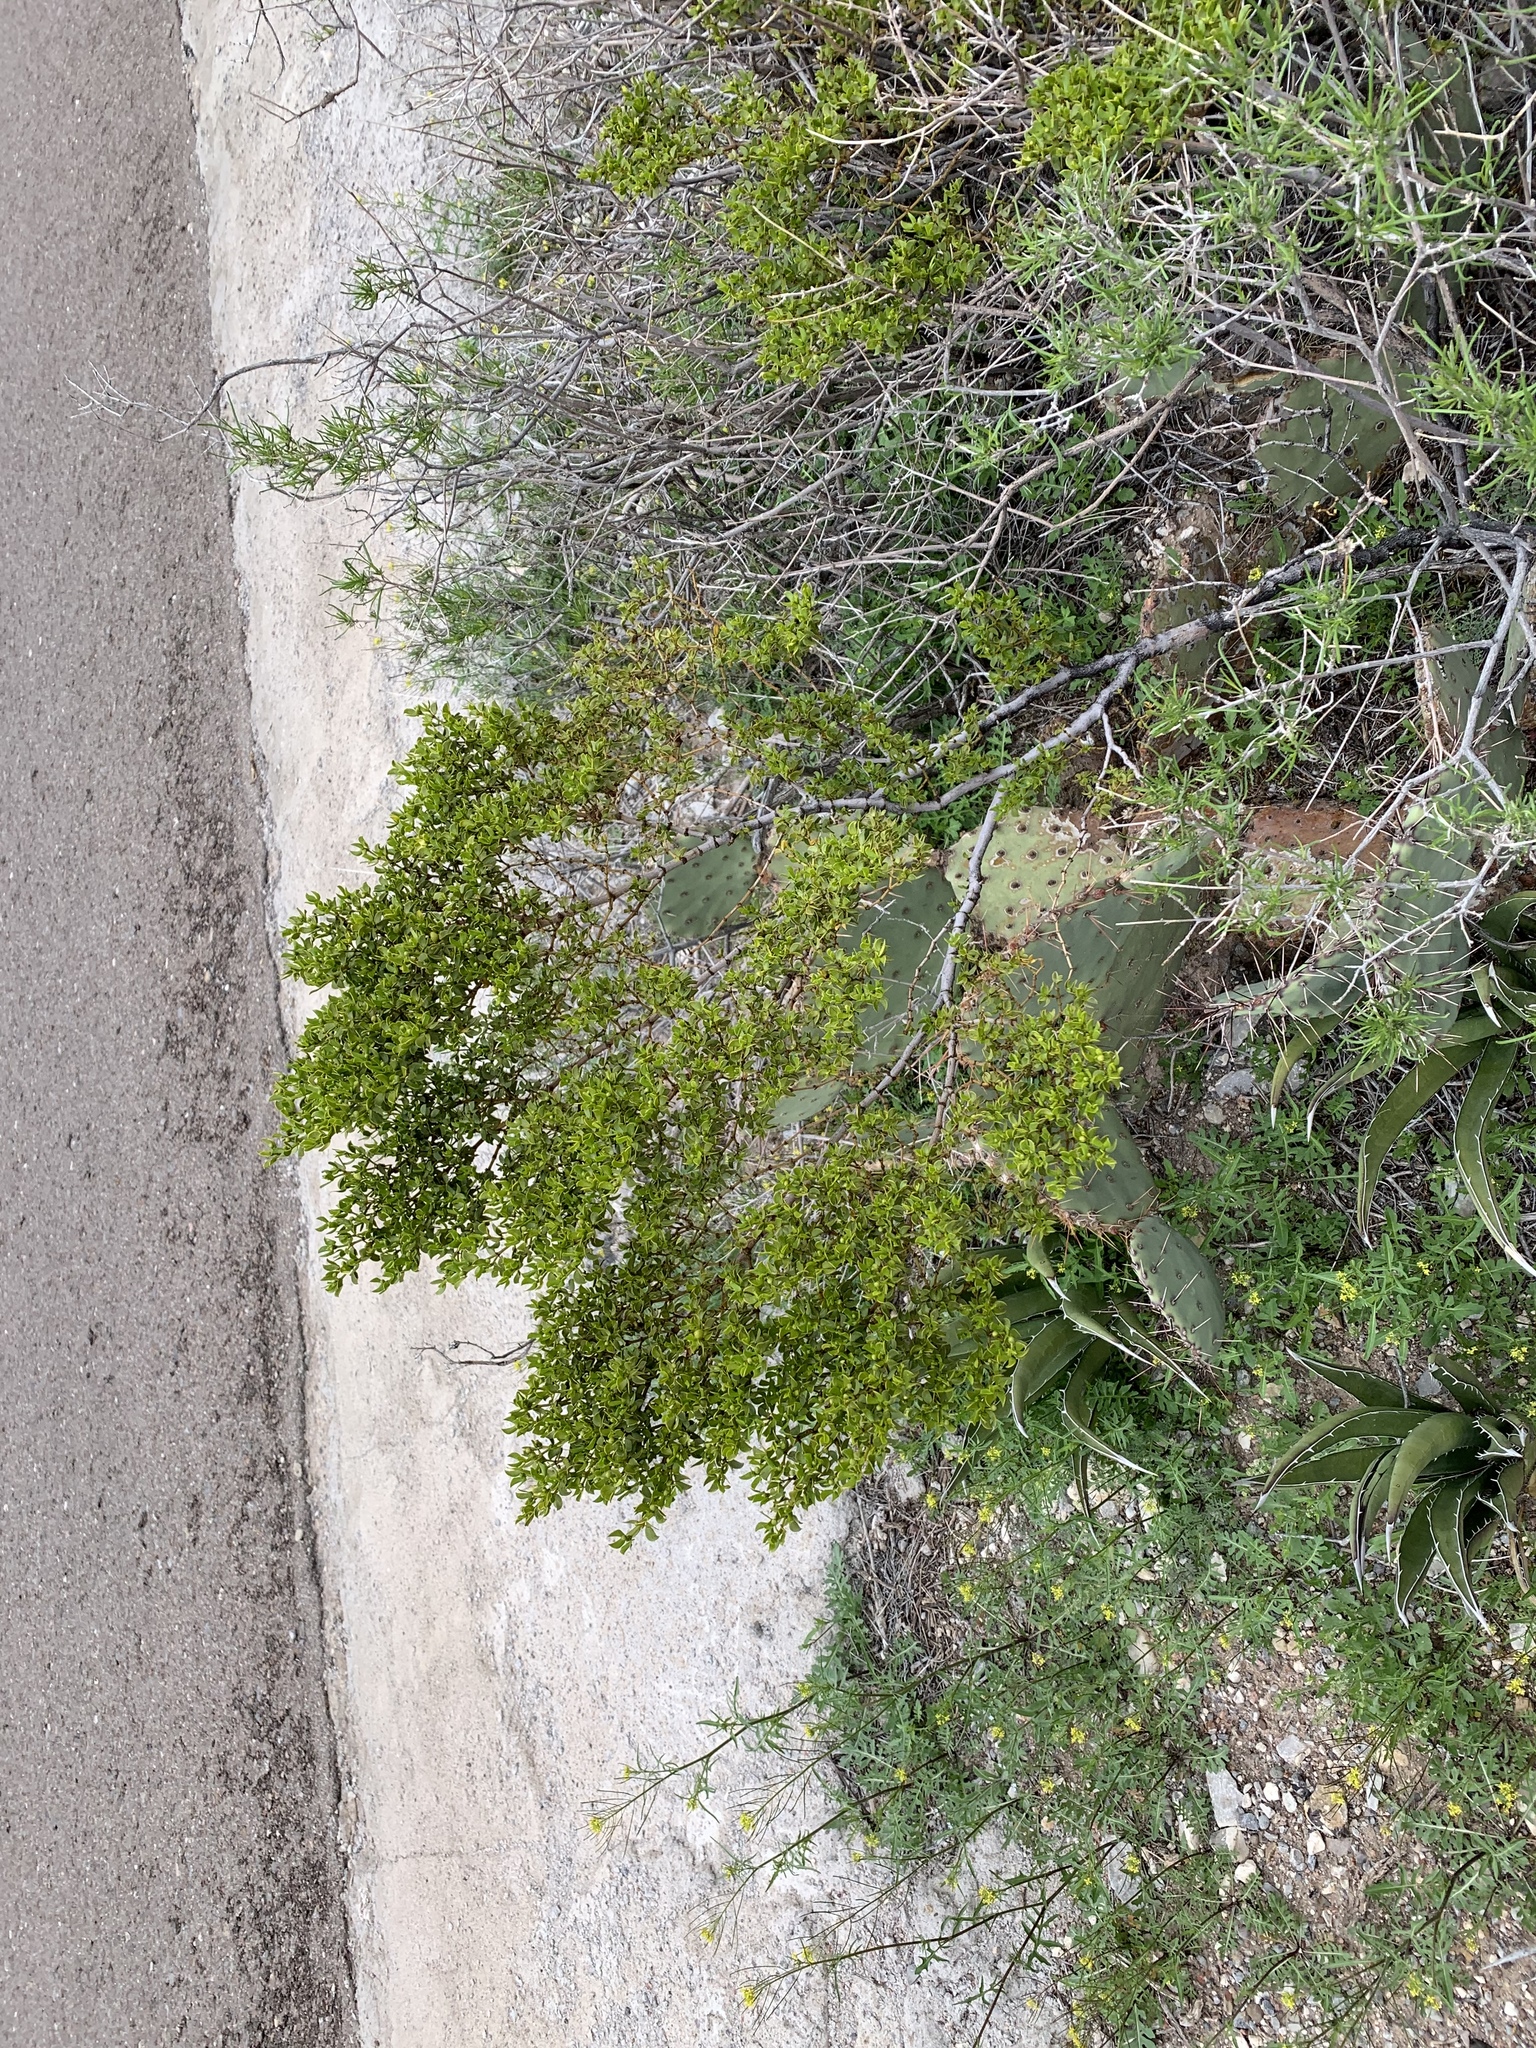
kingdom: Plantae
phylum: Tracheophyta
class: Magnoliopsida
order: Zygophyllales
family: Zygophyllaceae
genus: Larrea
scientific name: Larrea tridentata
